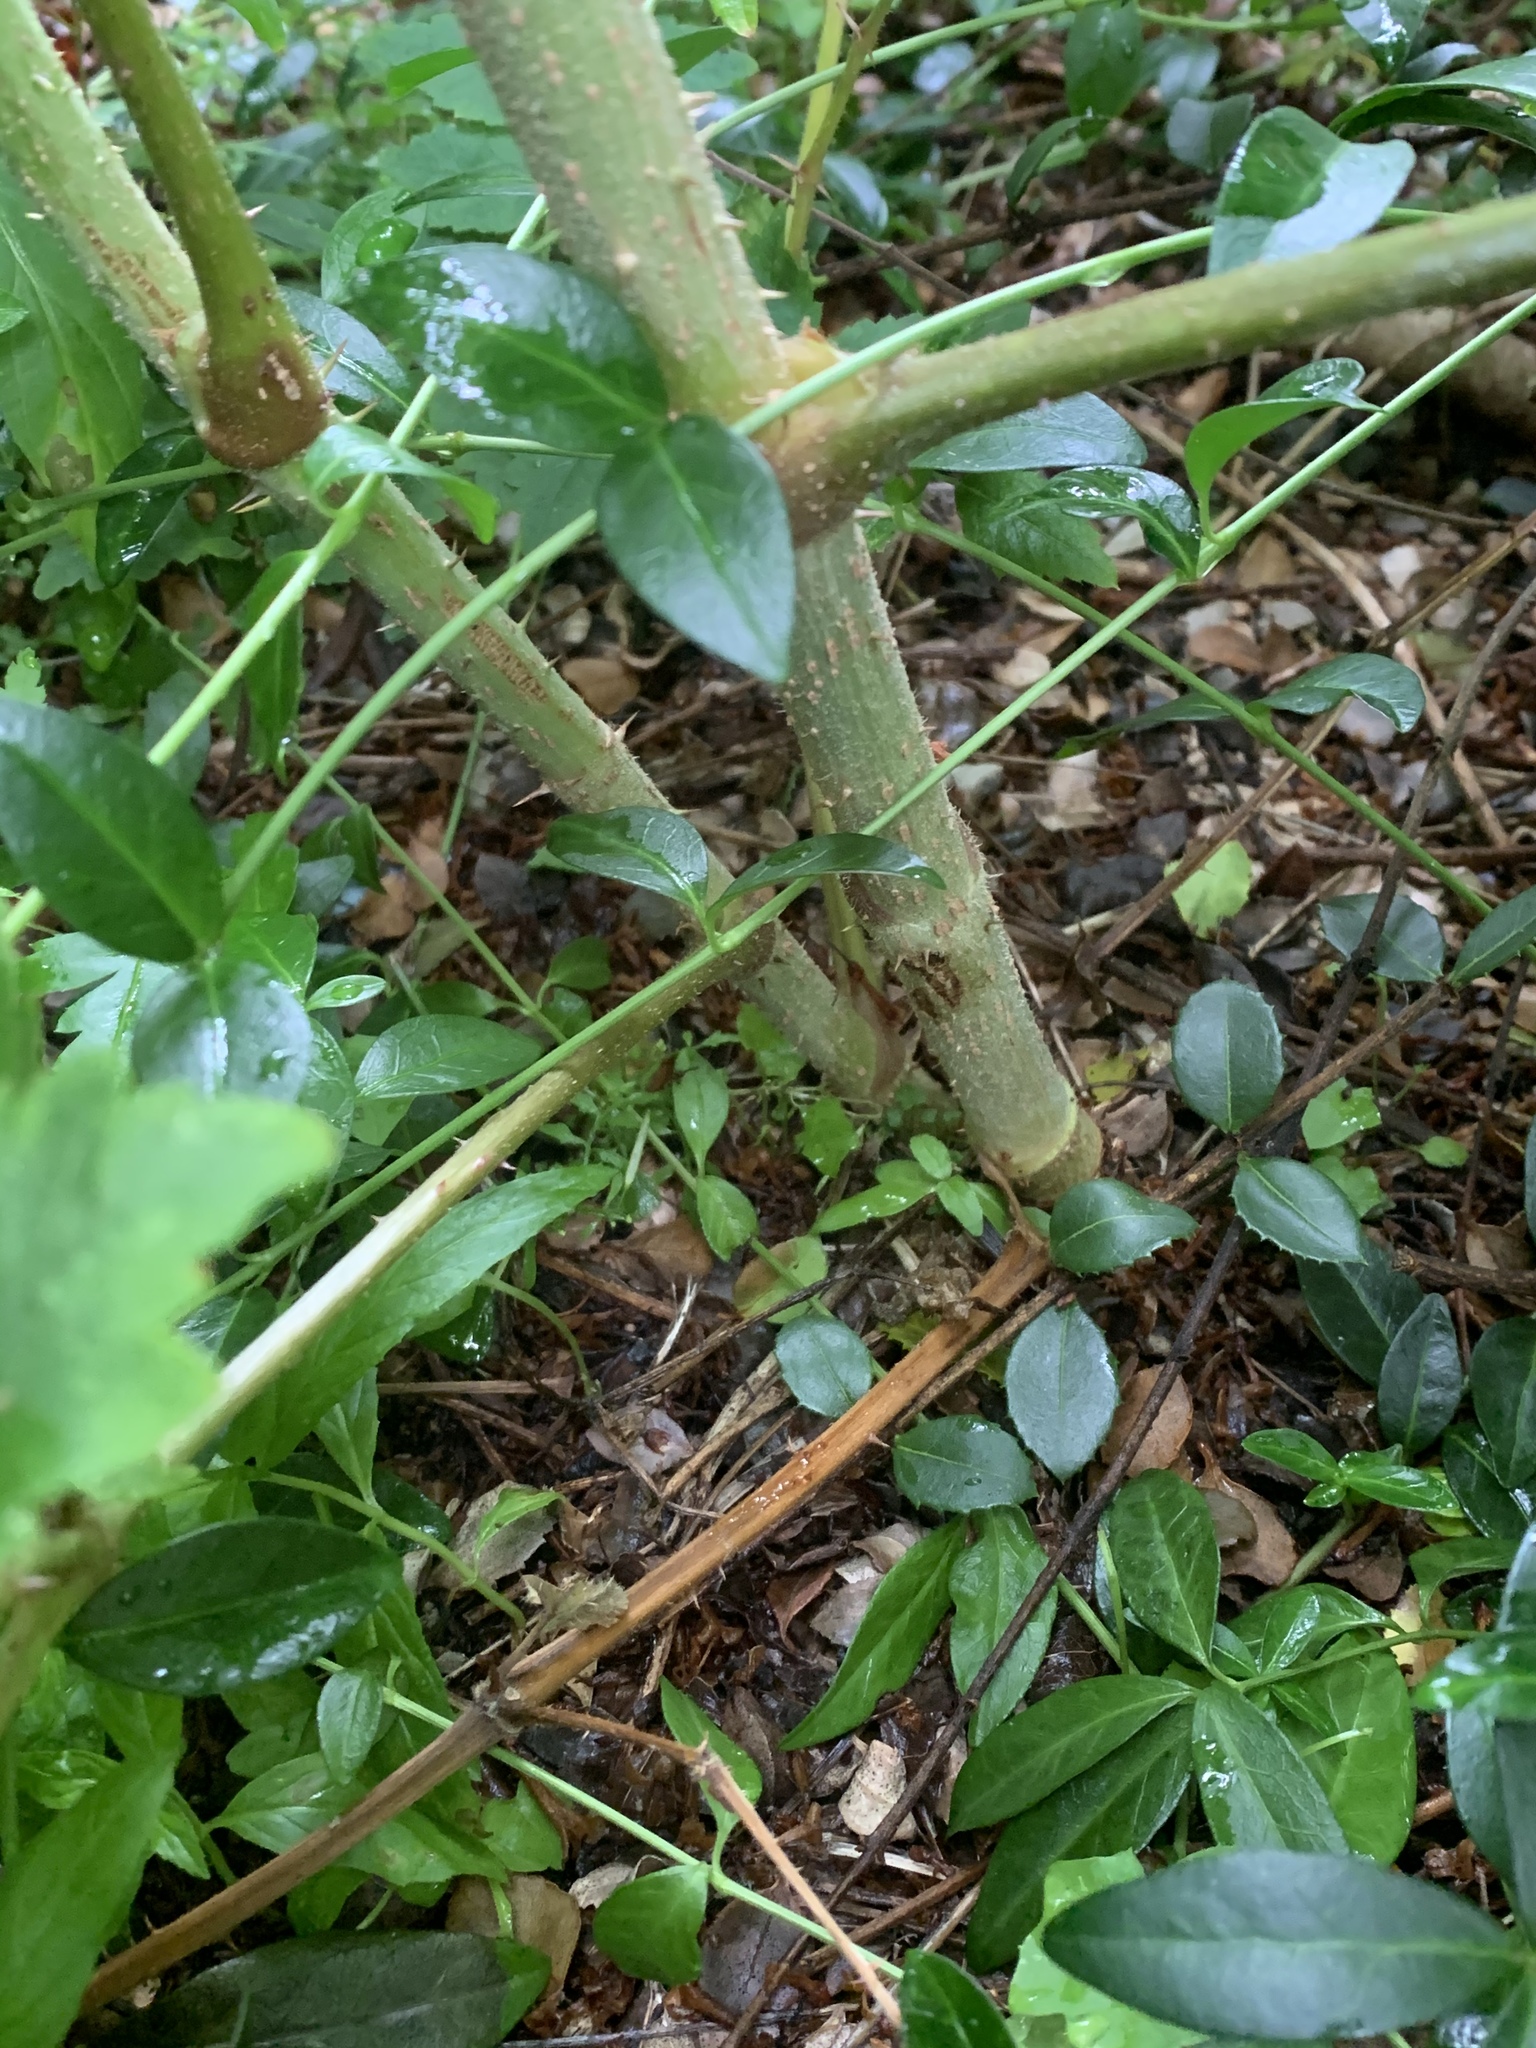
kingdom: Plantae
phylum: Tracheophyta
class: Magnoliopsida
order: Apiales
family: Araliaceae
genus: Aralia
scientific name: Aralia elata
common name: Japanese angelica-tree
